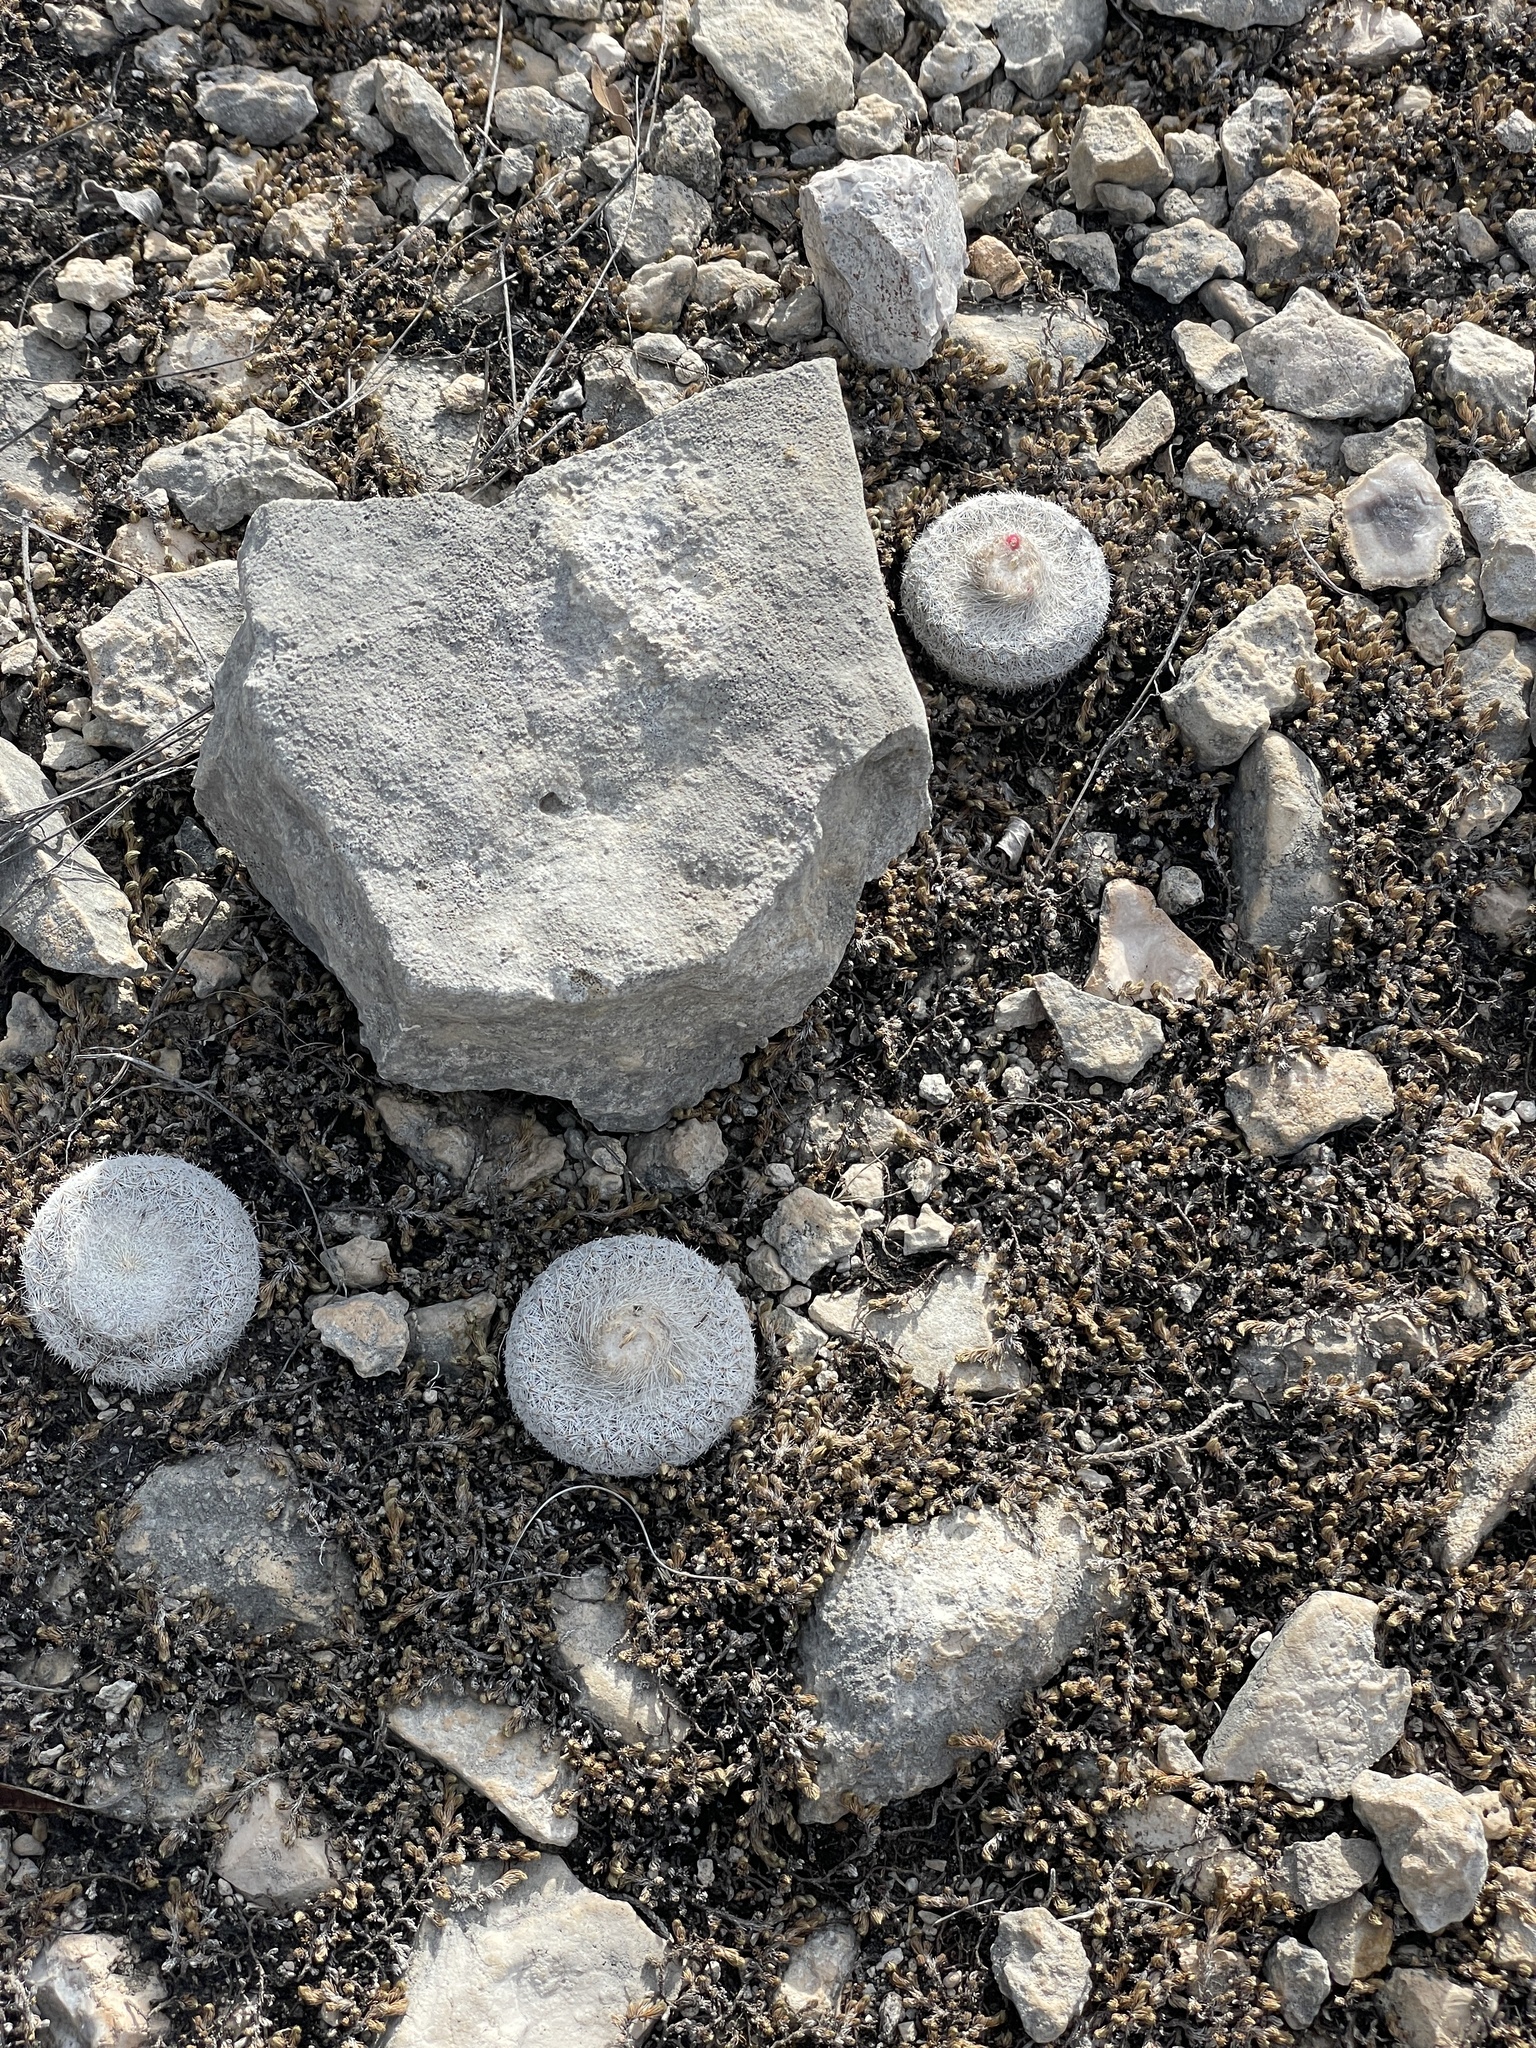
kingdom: Plantae
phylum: Tracheophyta
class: Magnoliopsida
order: Caryophyllales
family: Cactaceae
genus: Epithelantha
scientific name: Epithelantha micromeris
